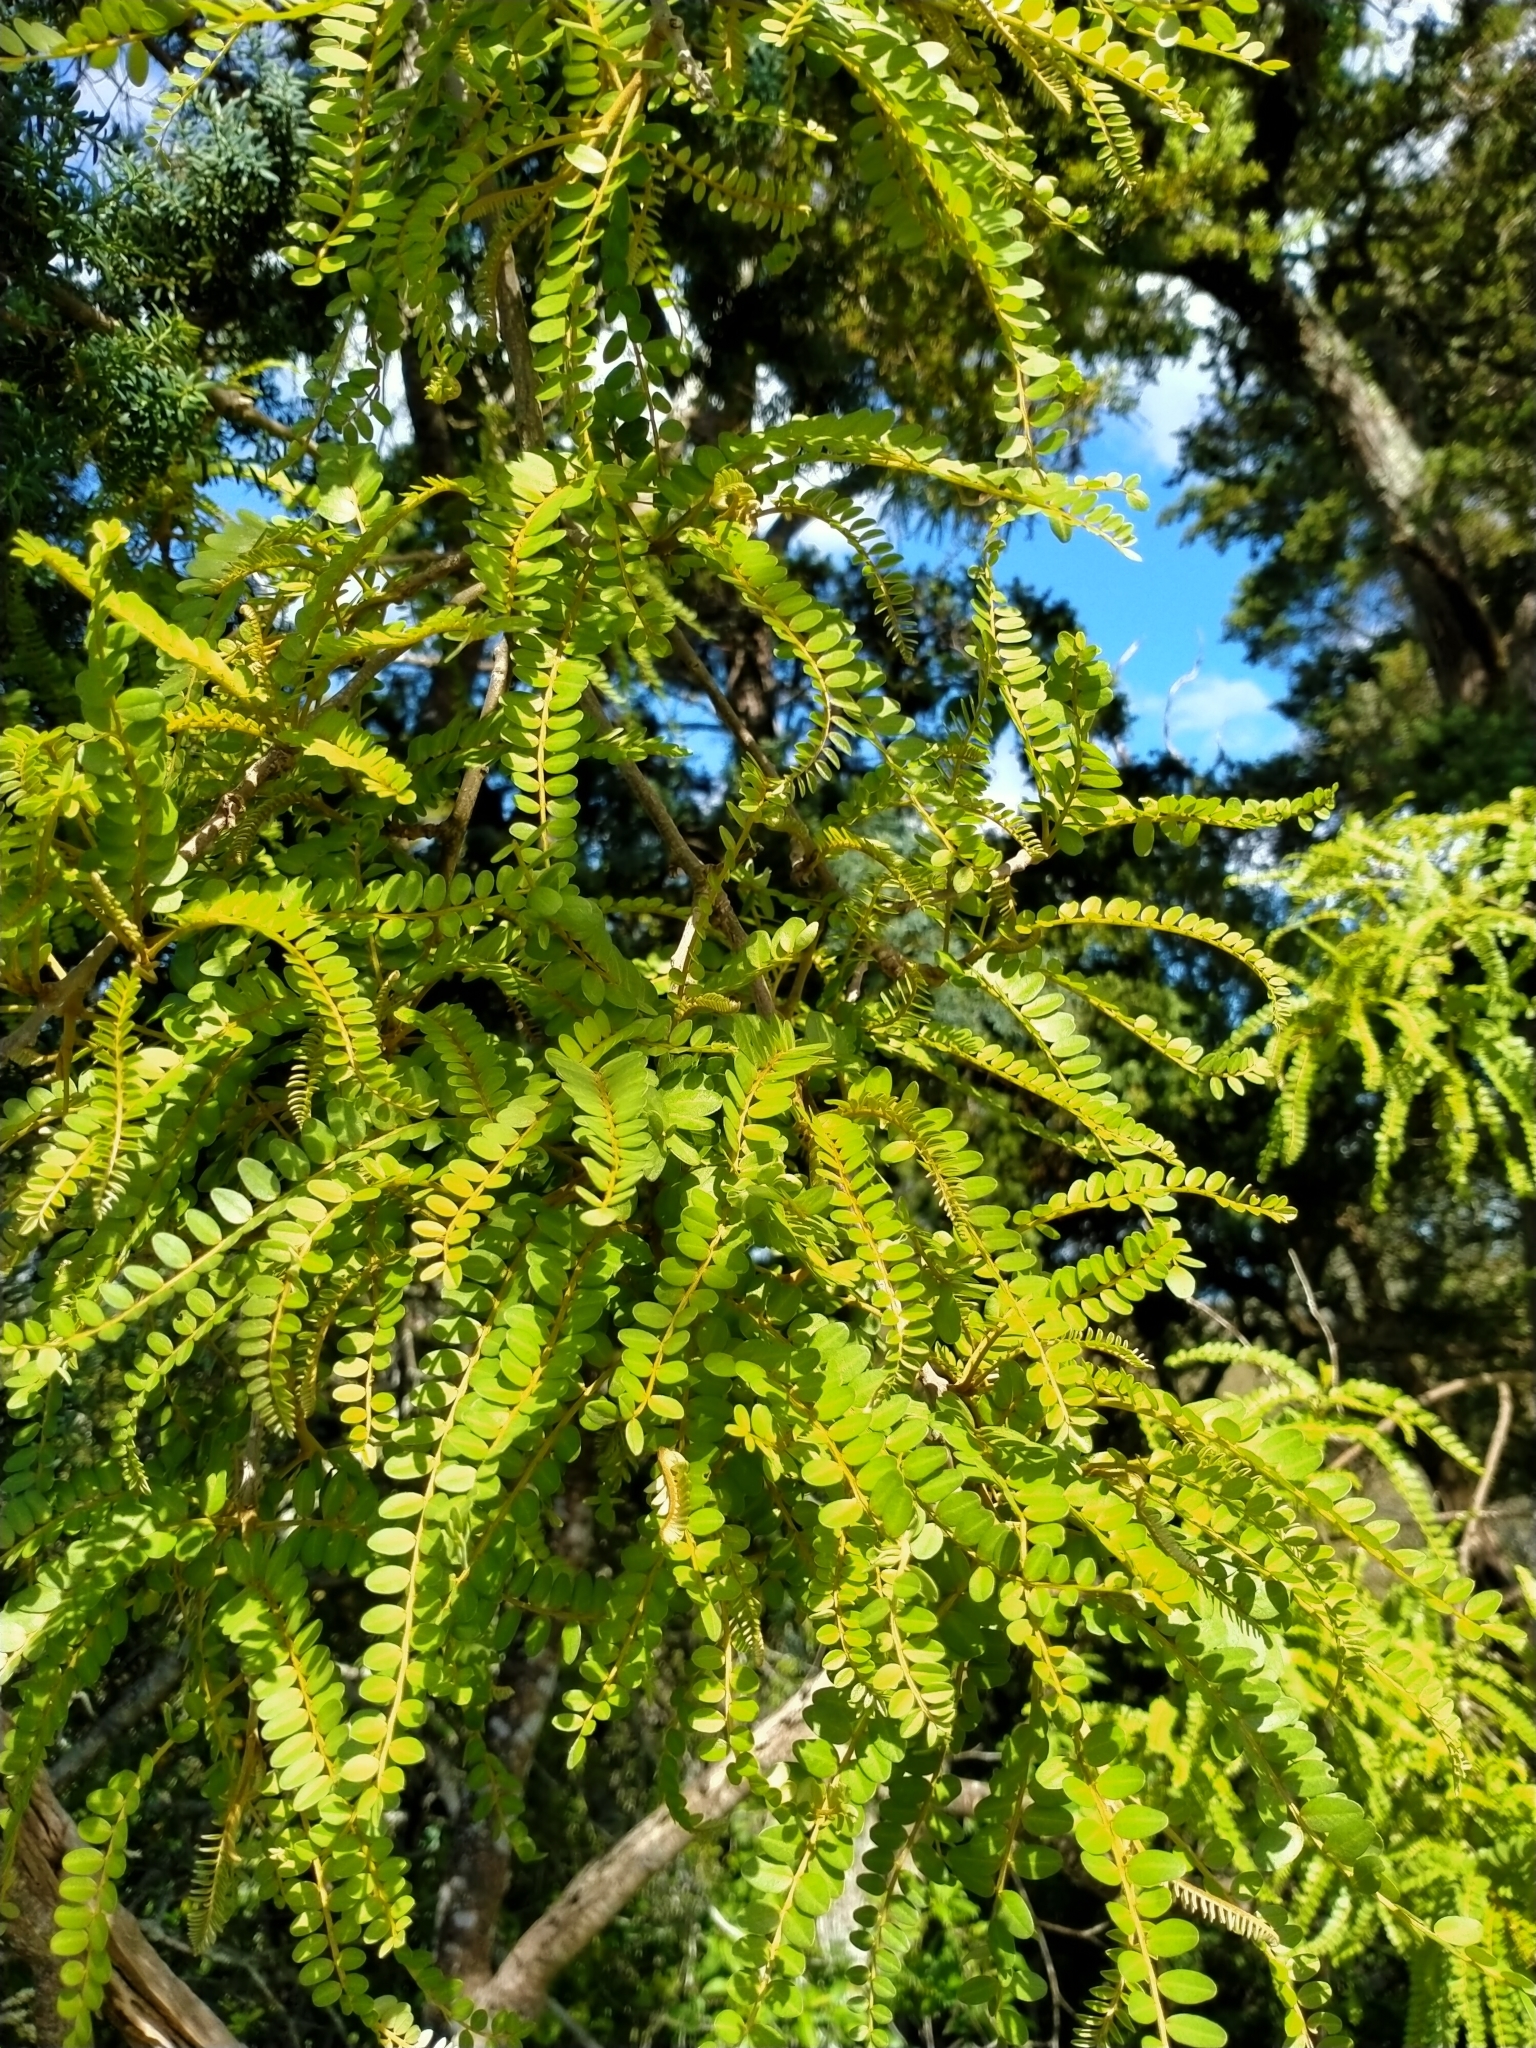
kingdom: Plantae
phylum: Tracheophyta
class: Magnoliopsida
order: Fabales
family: Fabaceae
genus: Sophora
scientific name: Sophora chathamica
